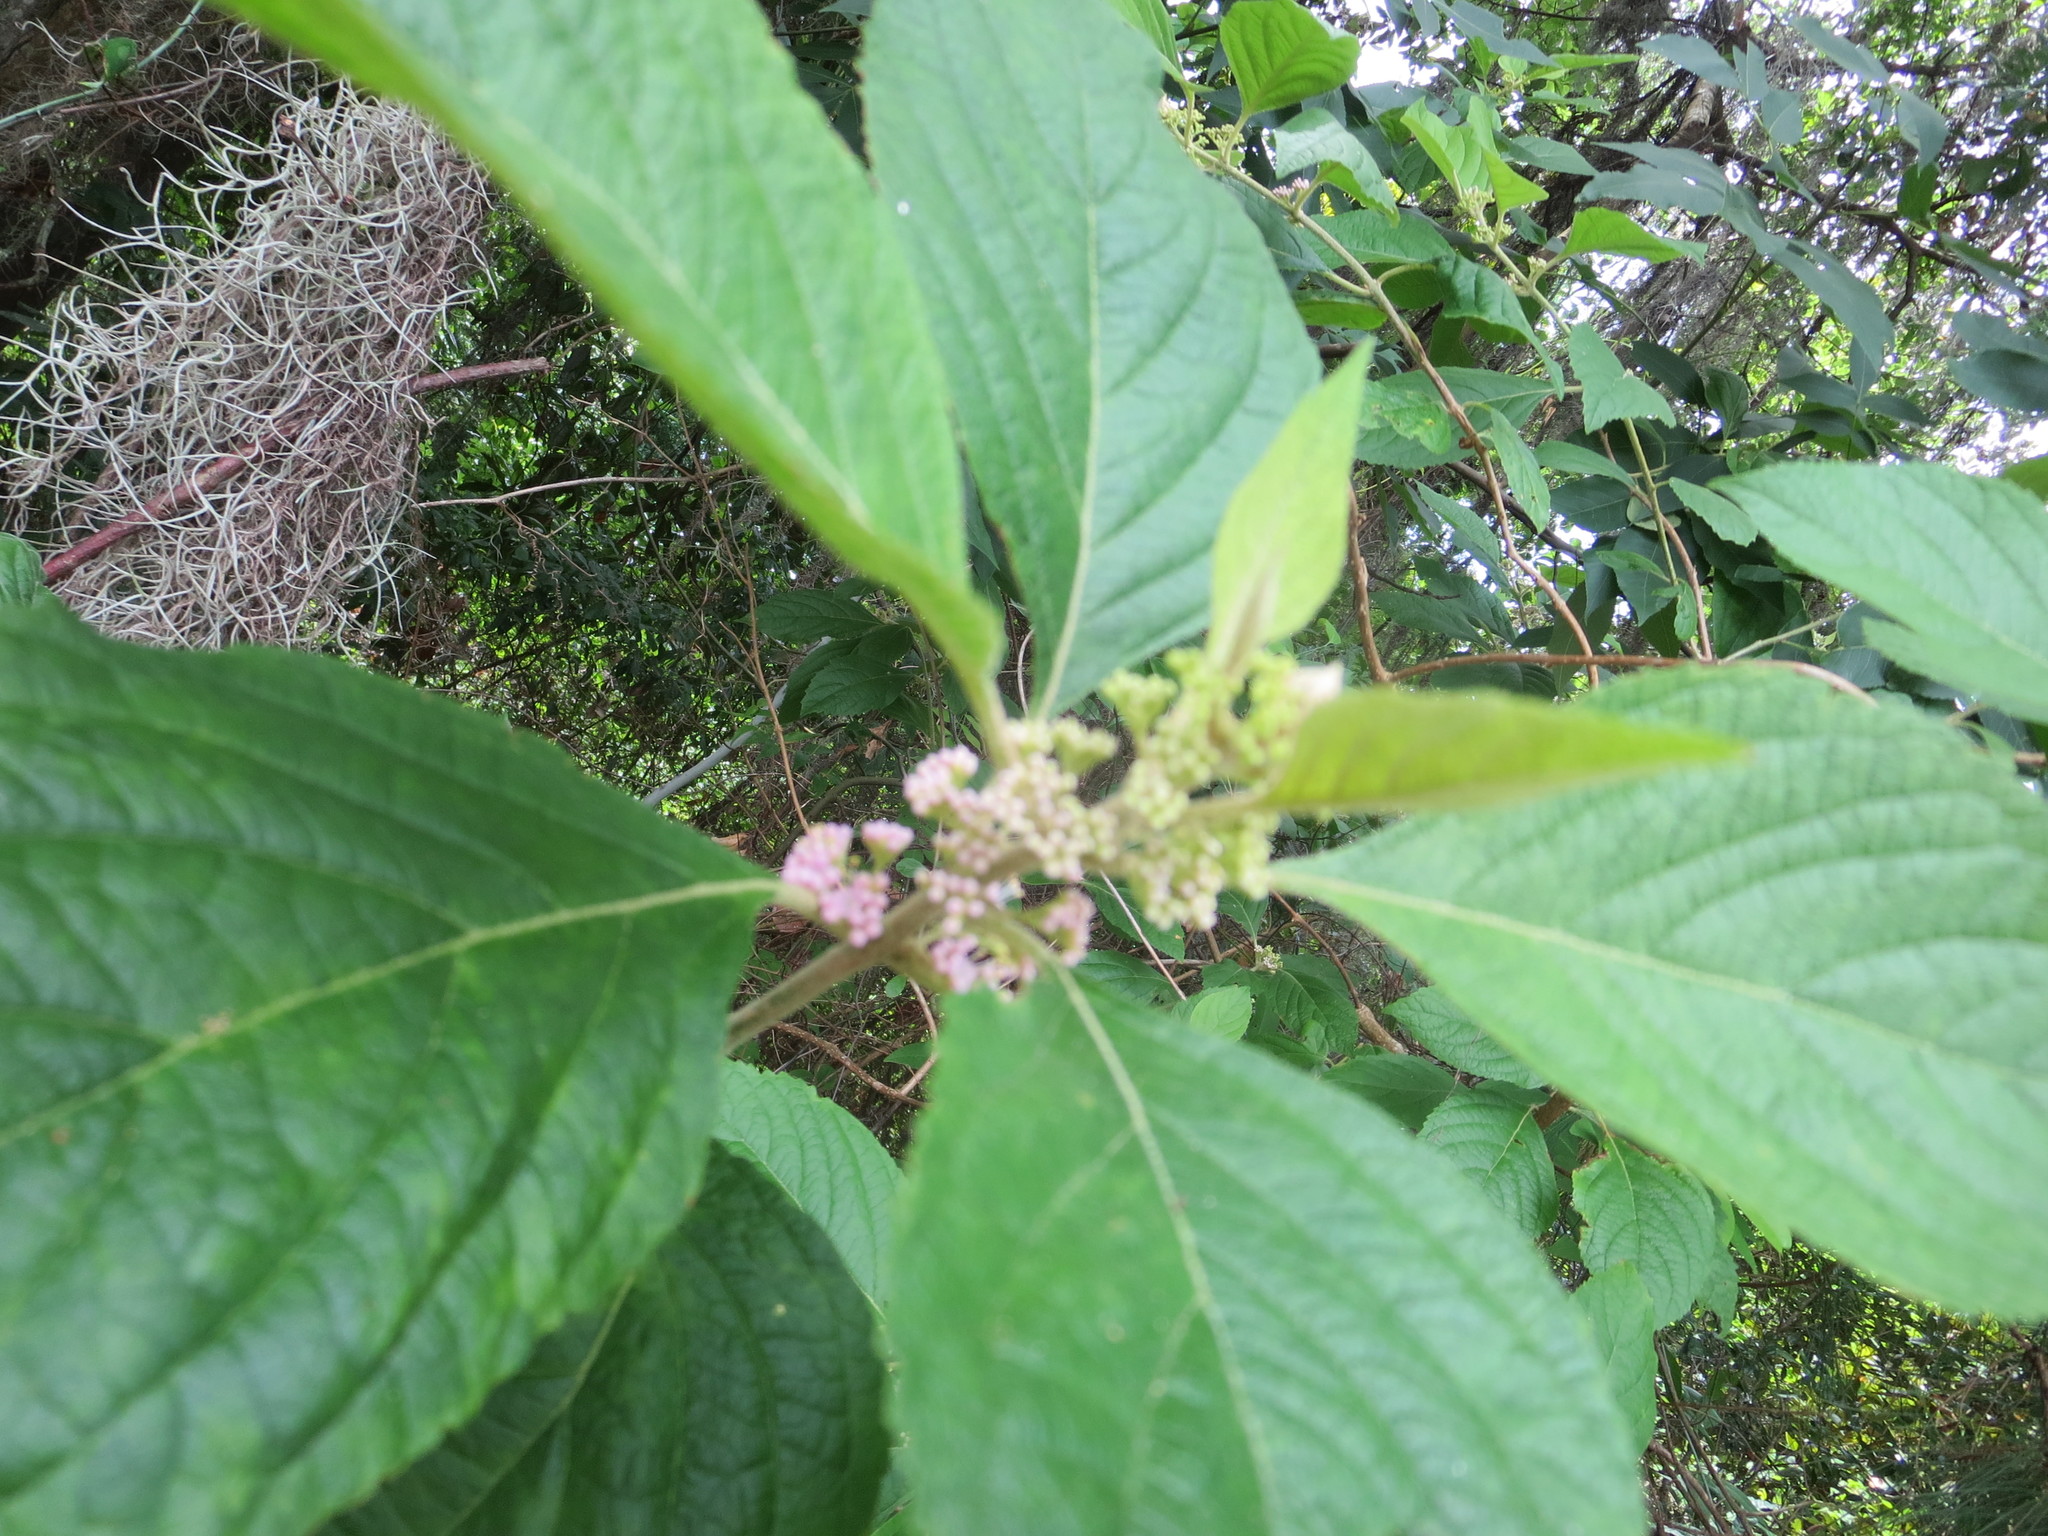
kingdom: Plantae
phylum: Tracheophyta
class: Magnoliopsida
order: Lamiales
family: Lamiaceae
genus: Callicarpa
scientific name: Callicarpa americana
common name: American beautyberry
